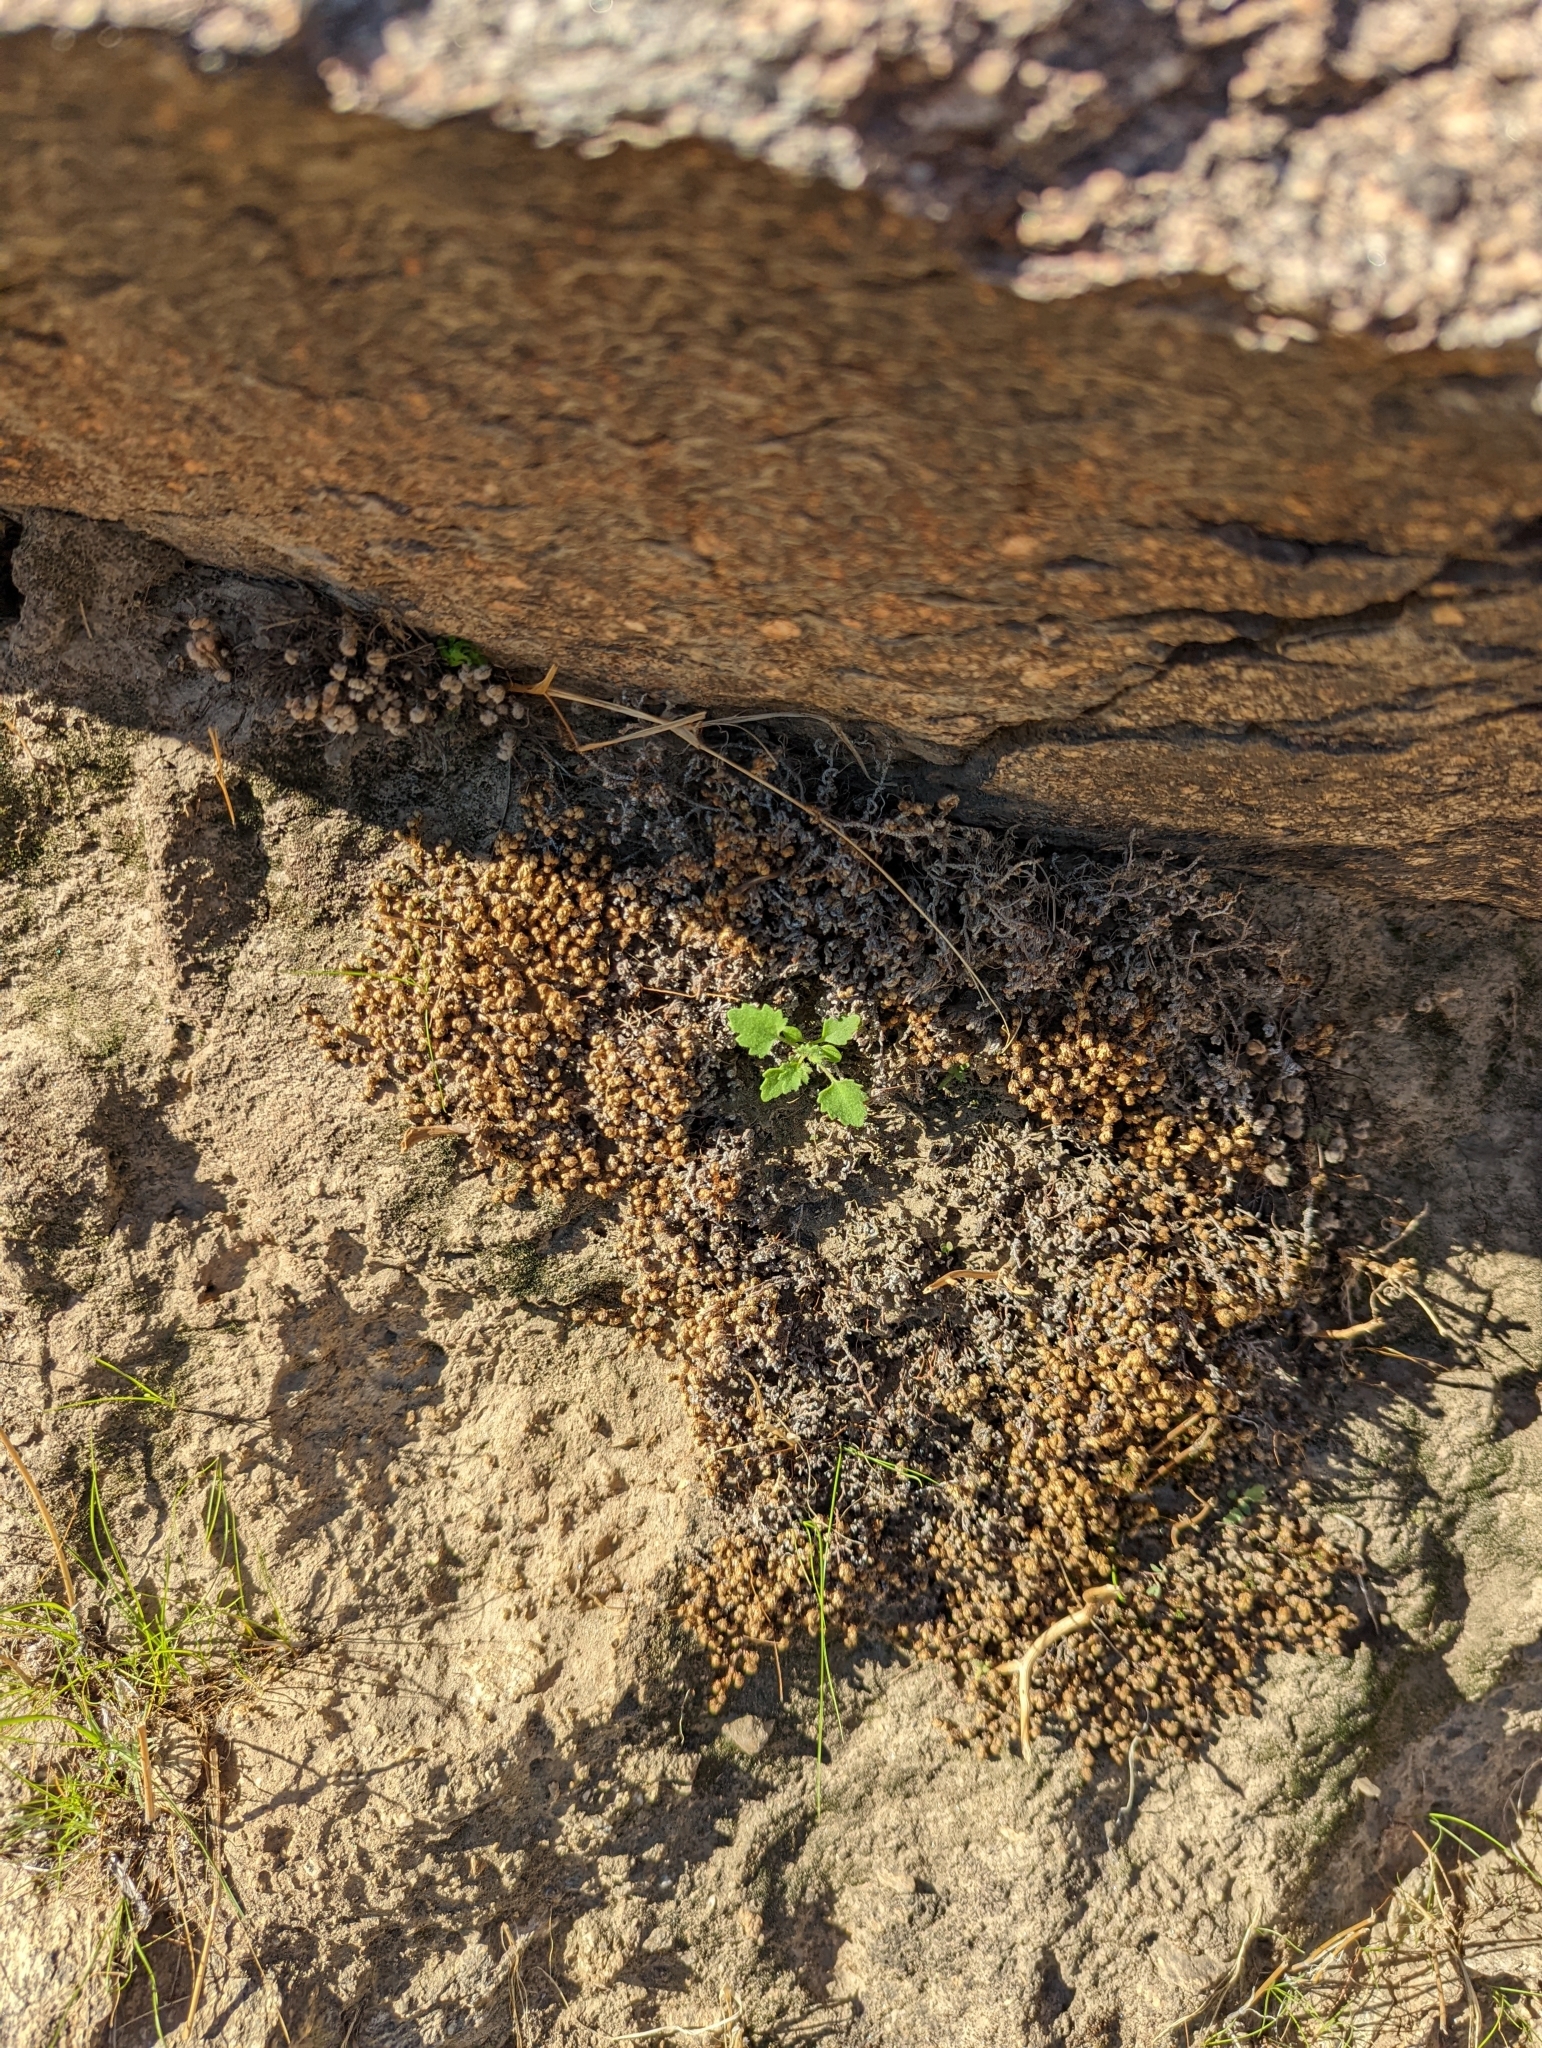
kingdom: Plantae
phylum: Tracheophyta
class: Lycopodiopsida
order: Selaginellales
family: Selaginellaceae
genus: Selaginella
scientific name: Selaginella eremophila
